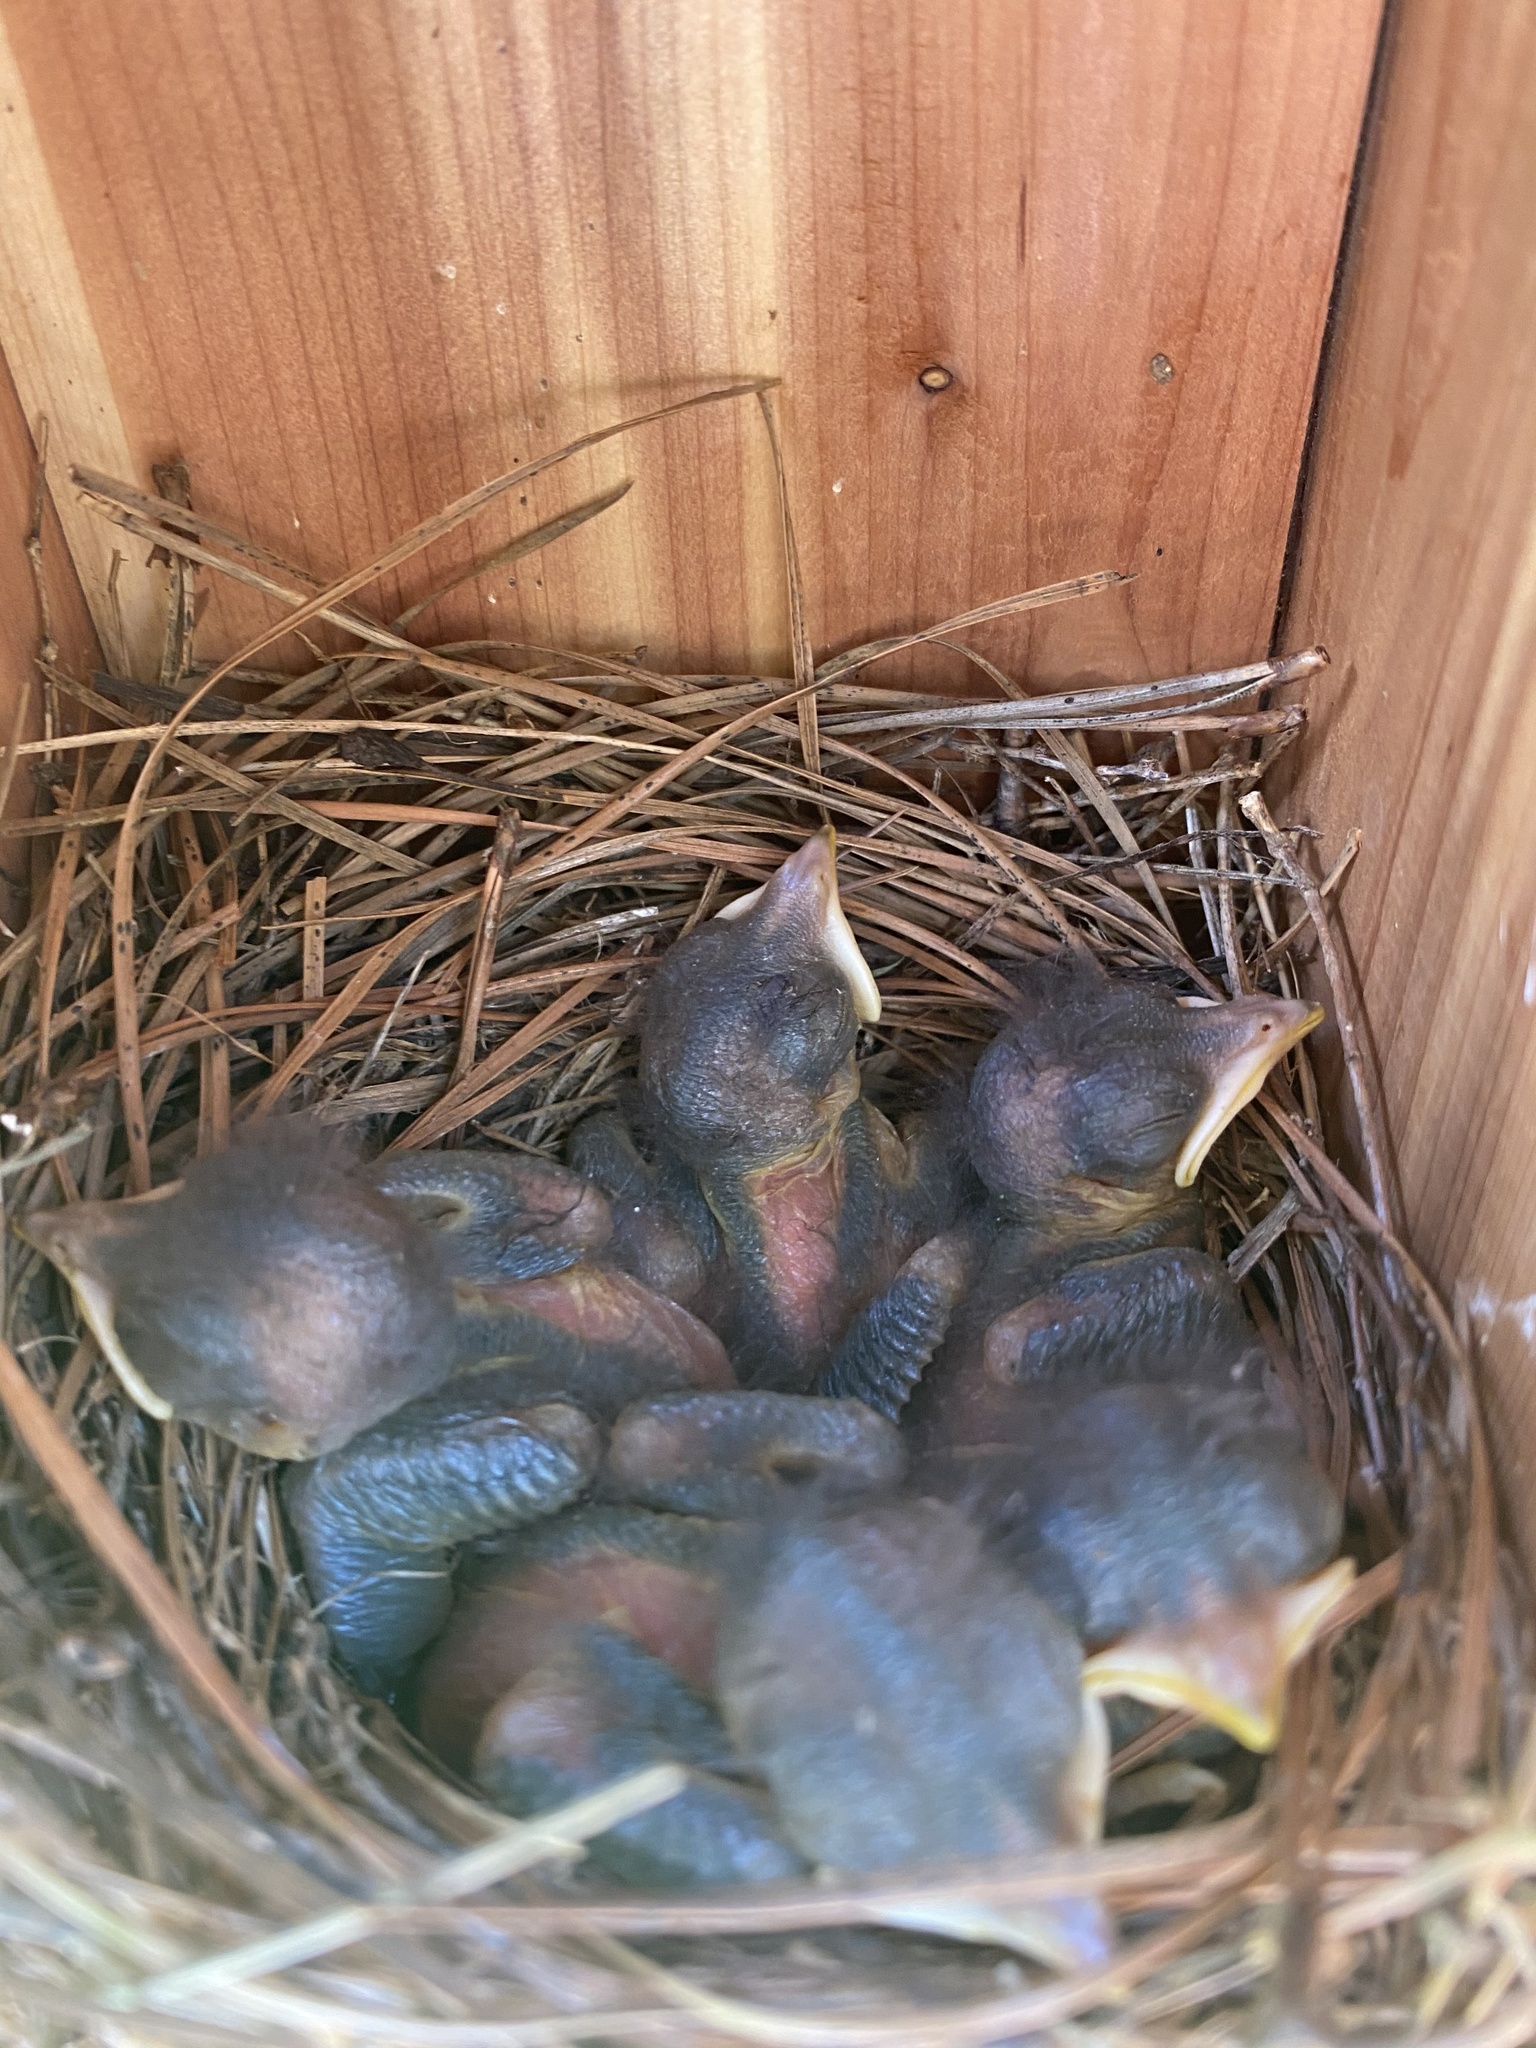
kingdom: Animalia
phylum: Chordata
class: Aves
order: Passeriformes
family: Turdidae
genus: Sialia
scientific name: Sialia sialis
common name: Eastern bluebird
